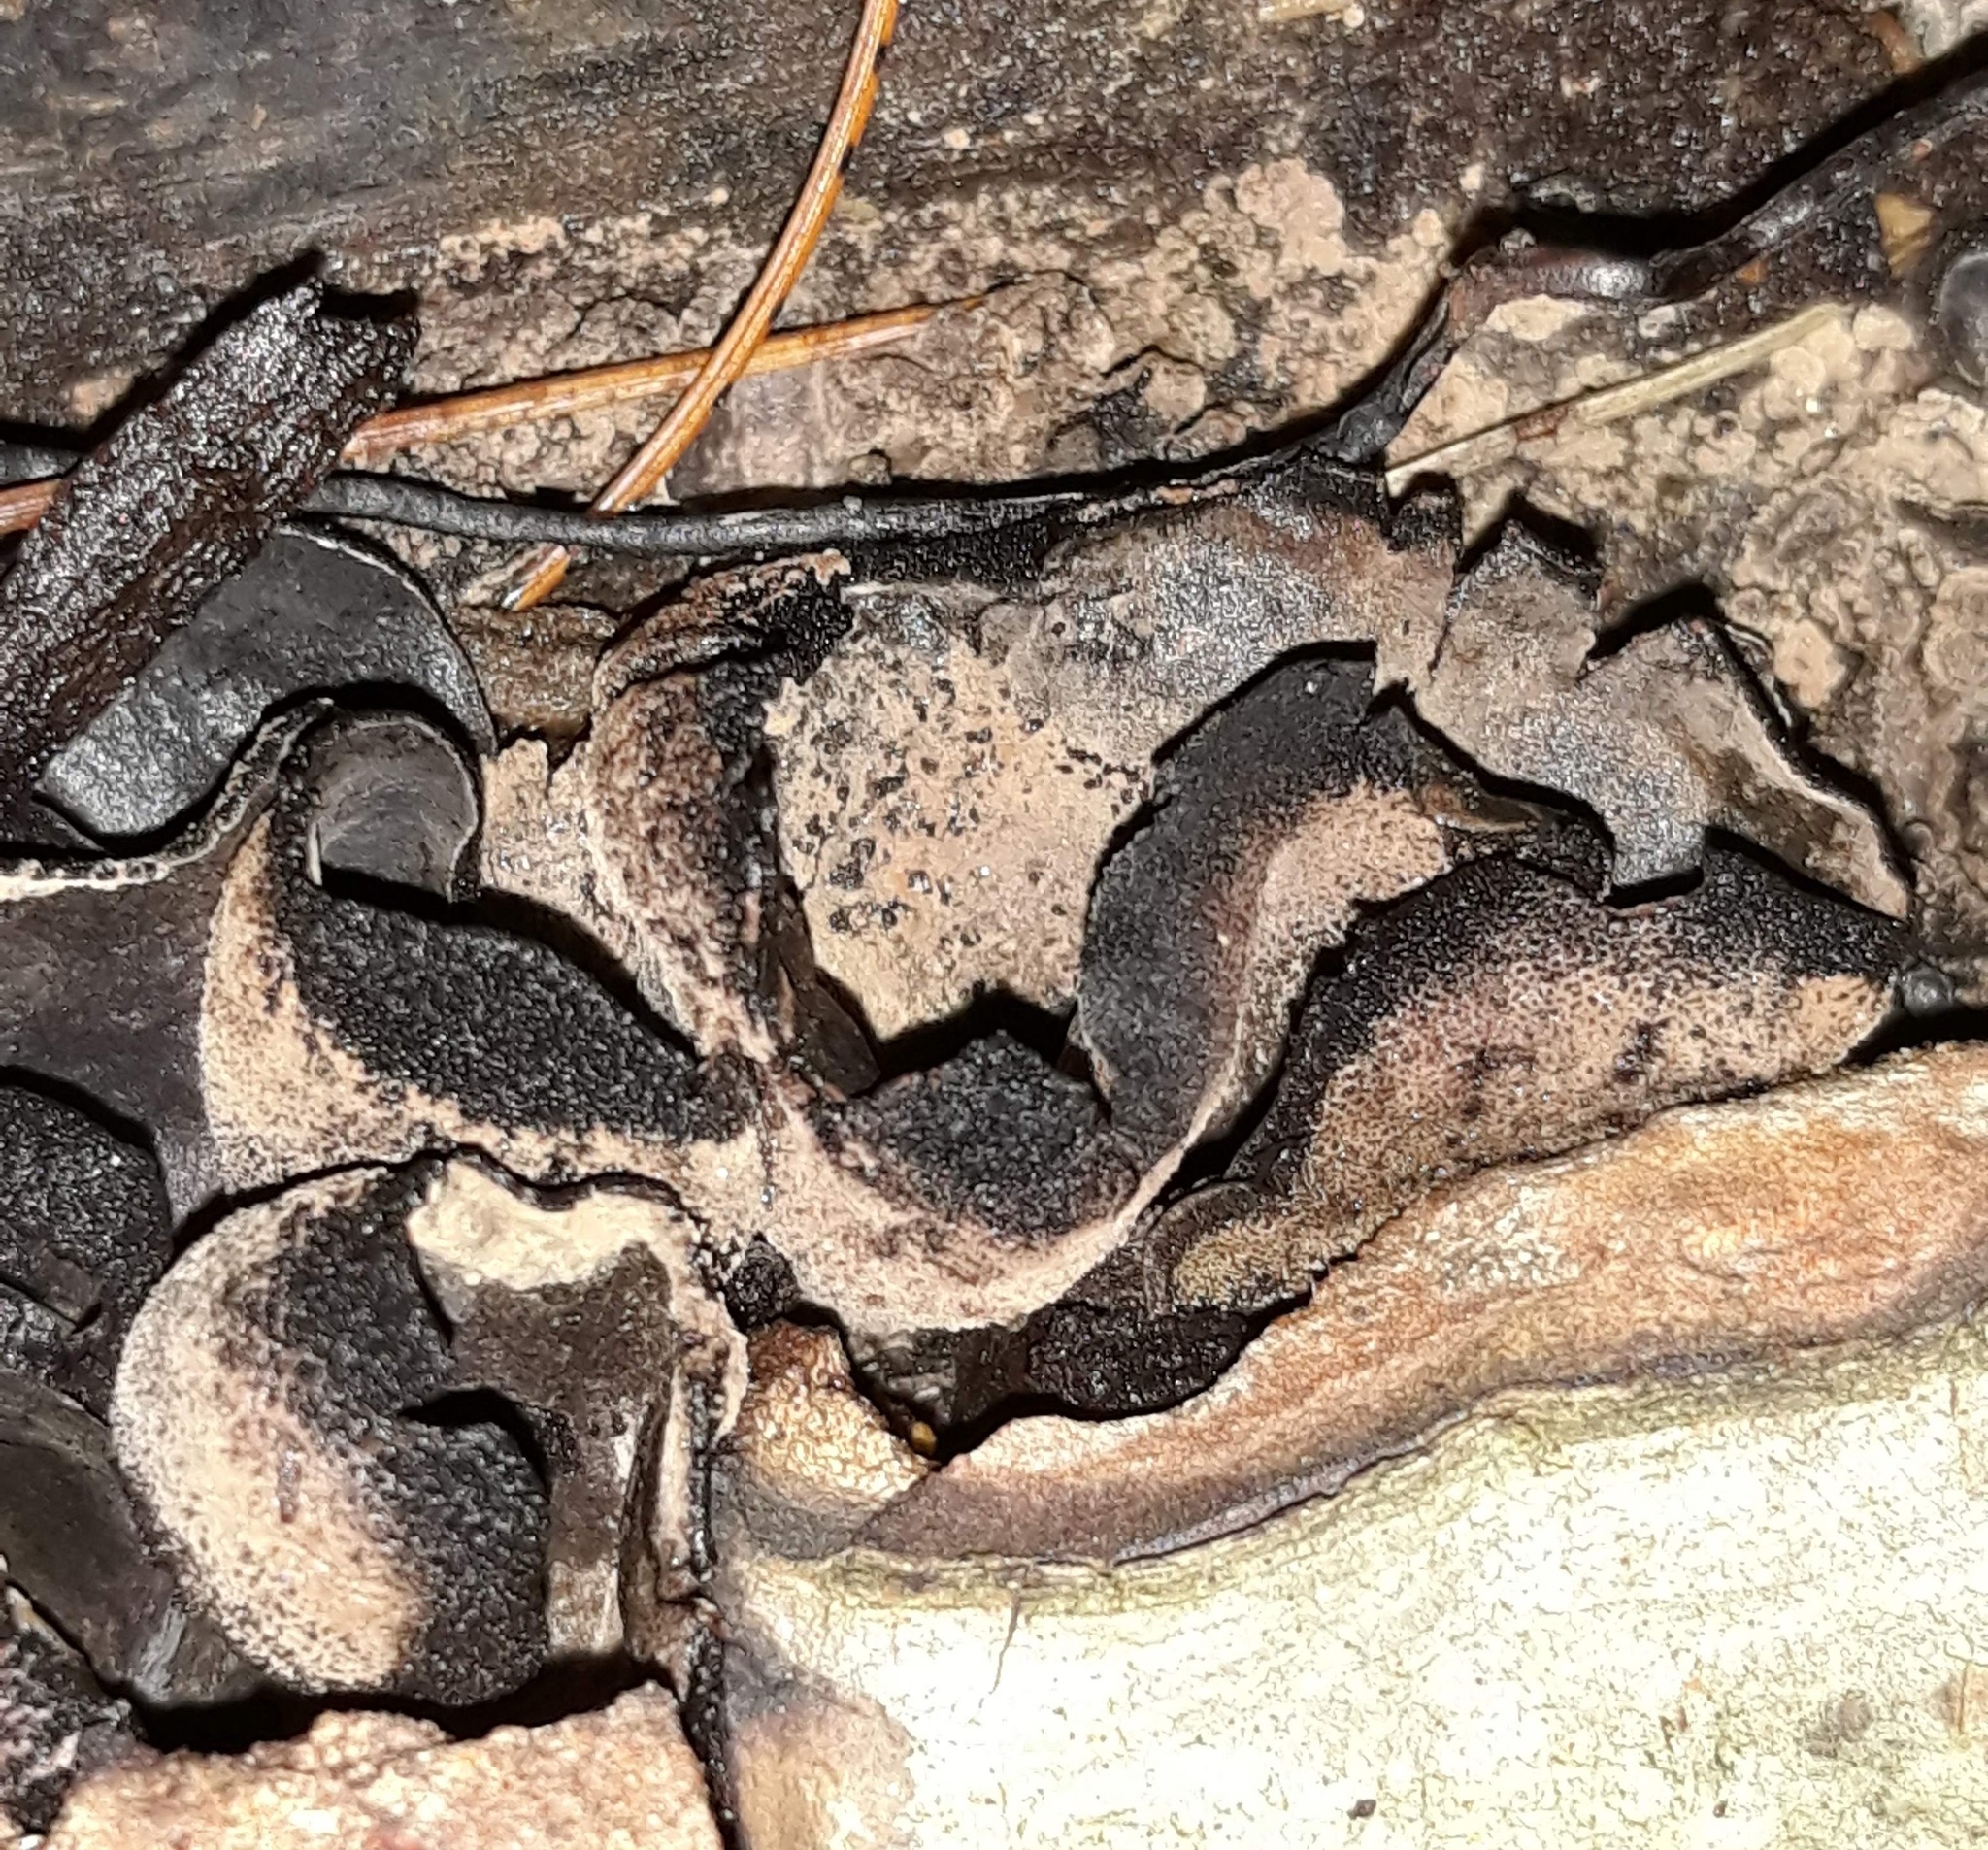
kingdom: Fungi
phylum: Ascomycota
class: Leotiomycetes
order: Helotiales
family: Cordieritidaceae
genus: Diplocarpa
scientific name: Diplocarpa irregularis
